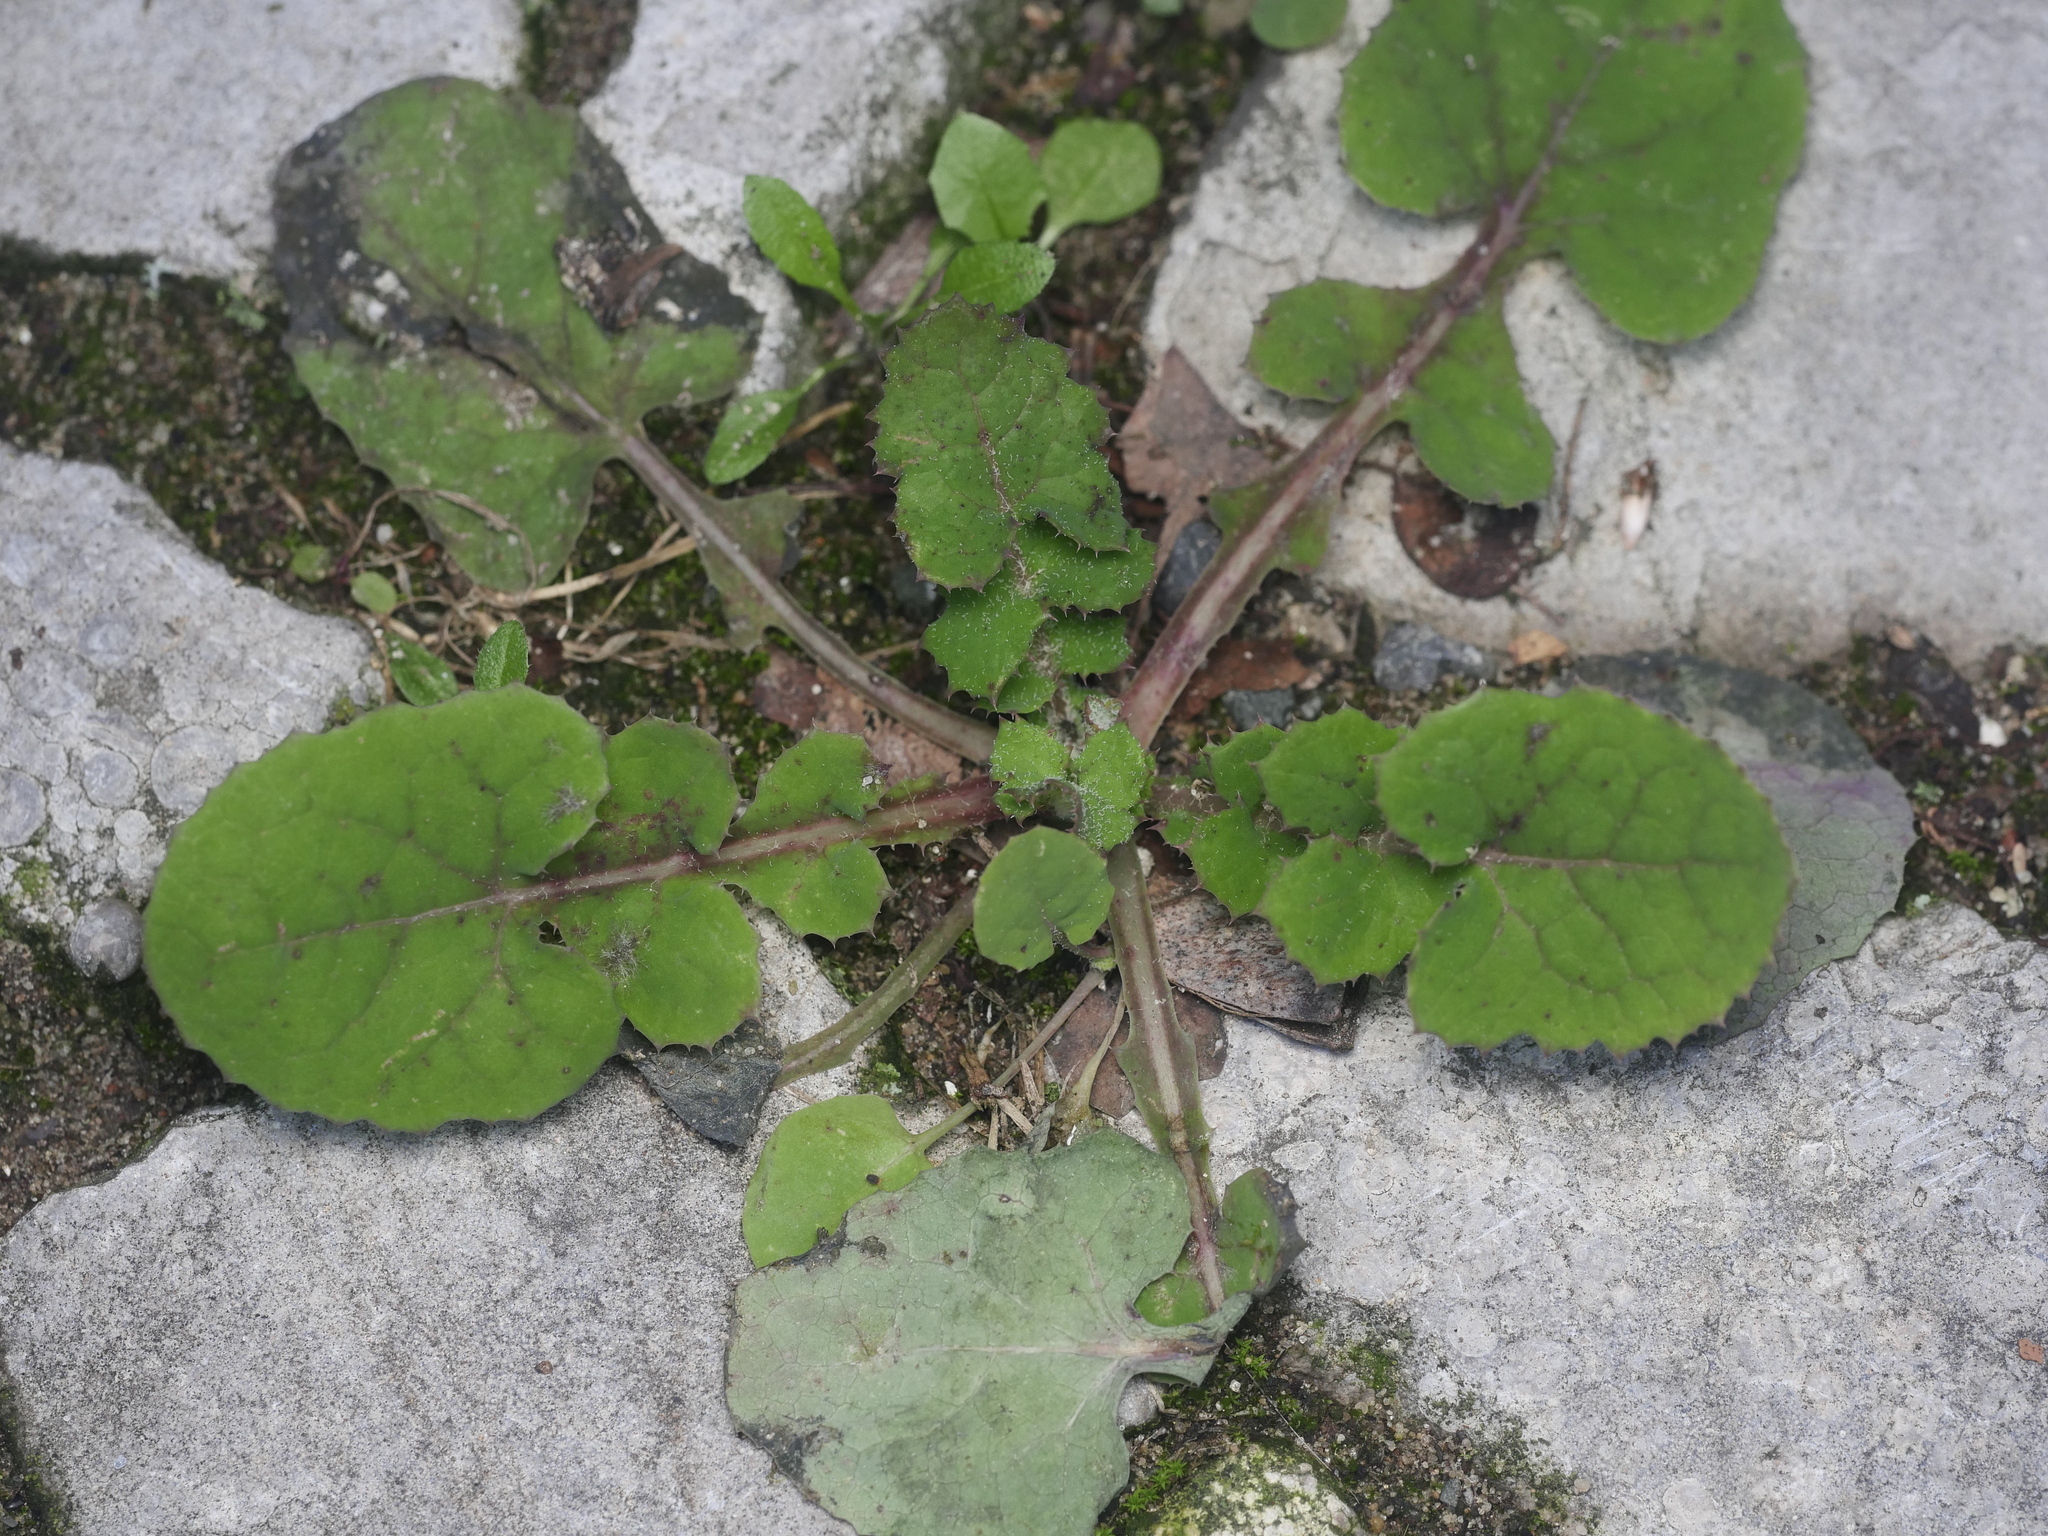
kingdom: Plantae
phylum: Tracheophyta
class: Magnoliopsida
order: Asterales
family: Asteraceae
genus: Sonchus
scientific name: Sonchus oleraceus
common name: Common sowthistle
